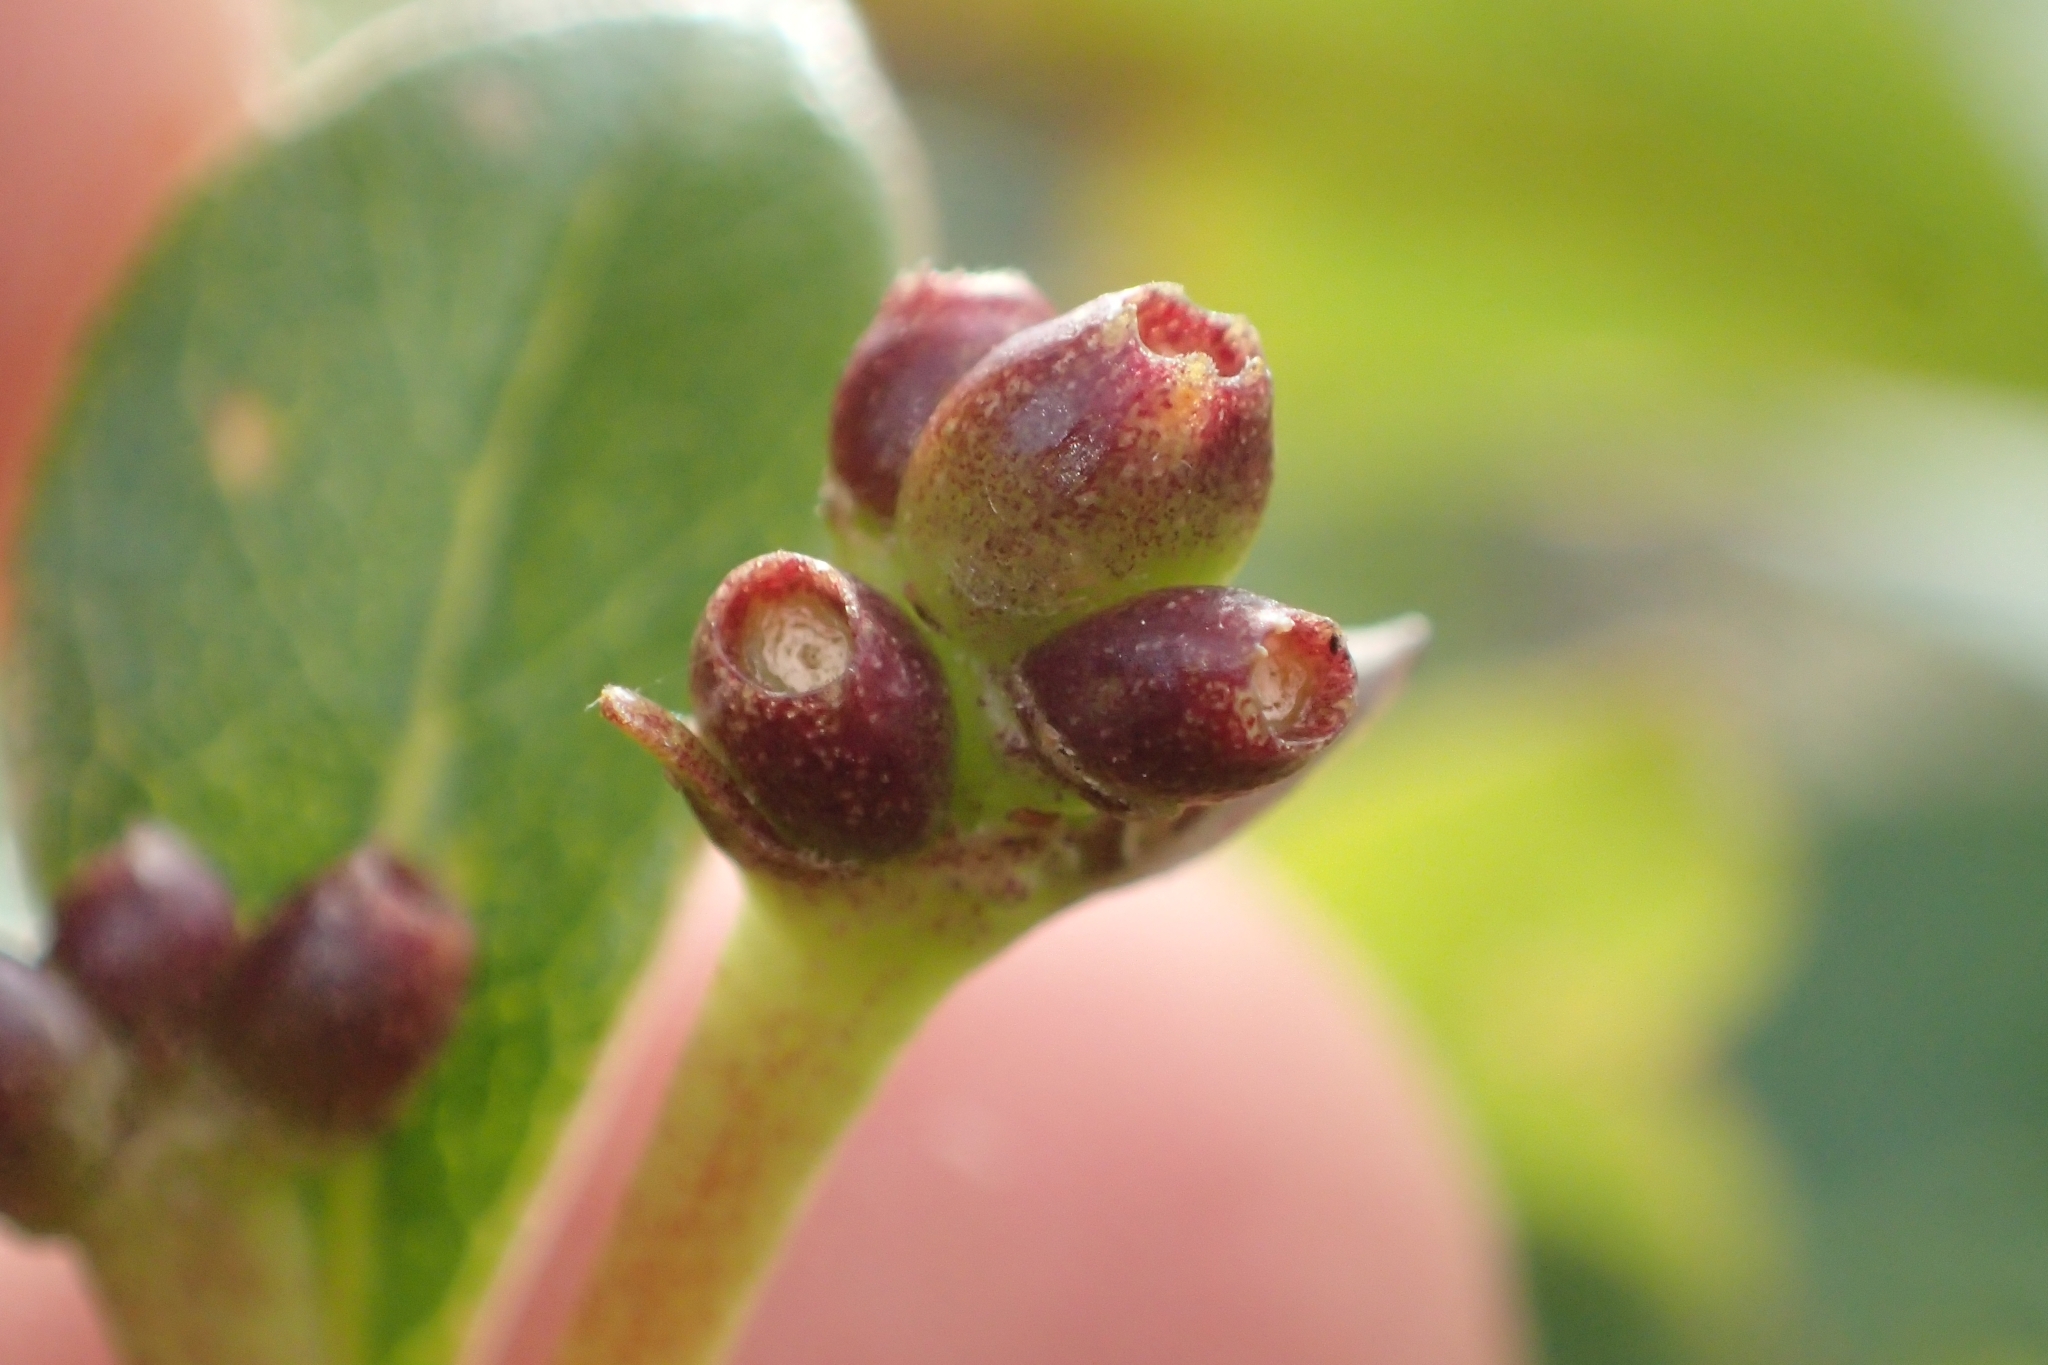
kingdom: Plantae
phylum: Tracheophyta
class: Magnoliopsida
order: Gentianales
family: Rubiaceae
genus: Coprosma
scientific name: Coprosma lucida
